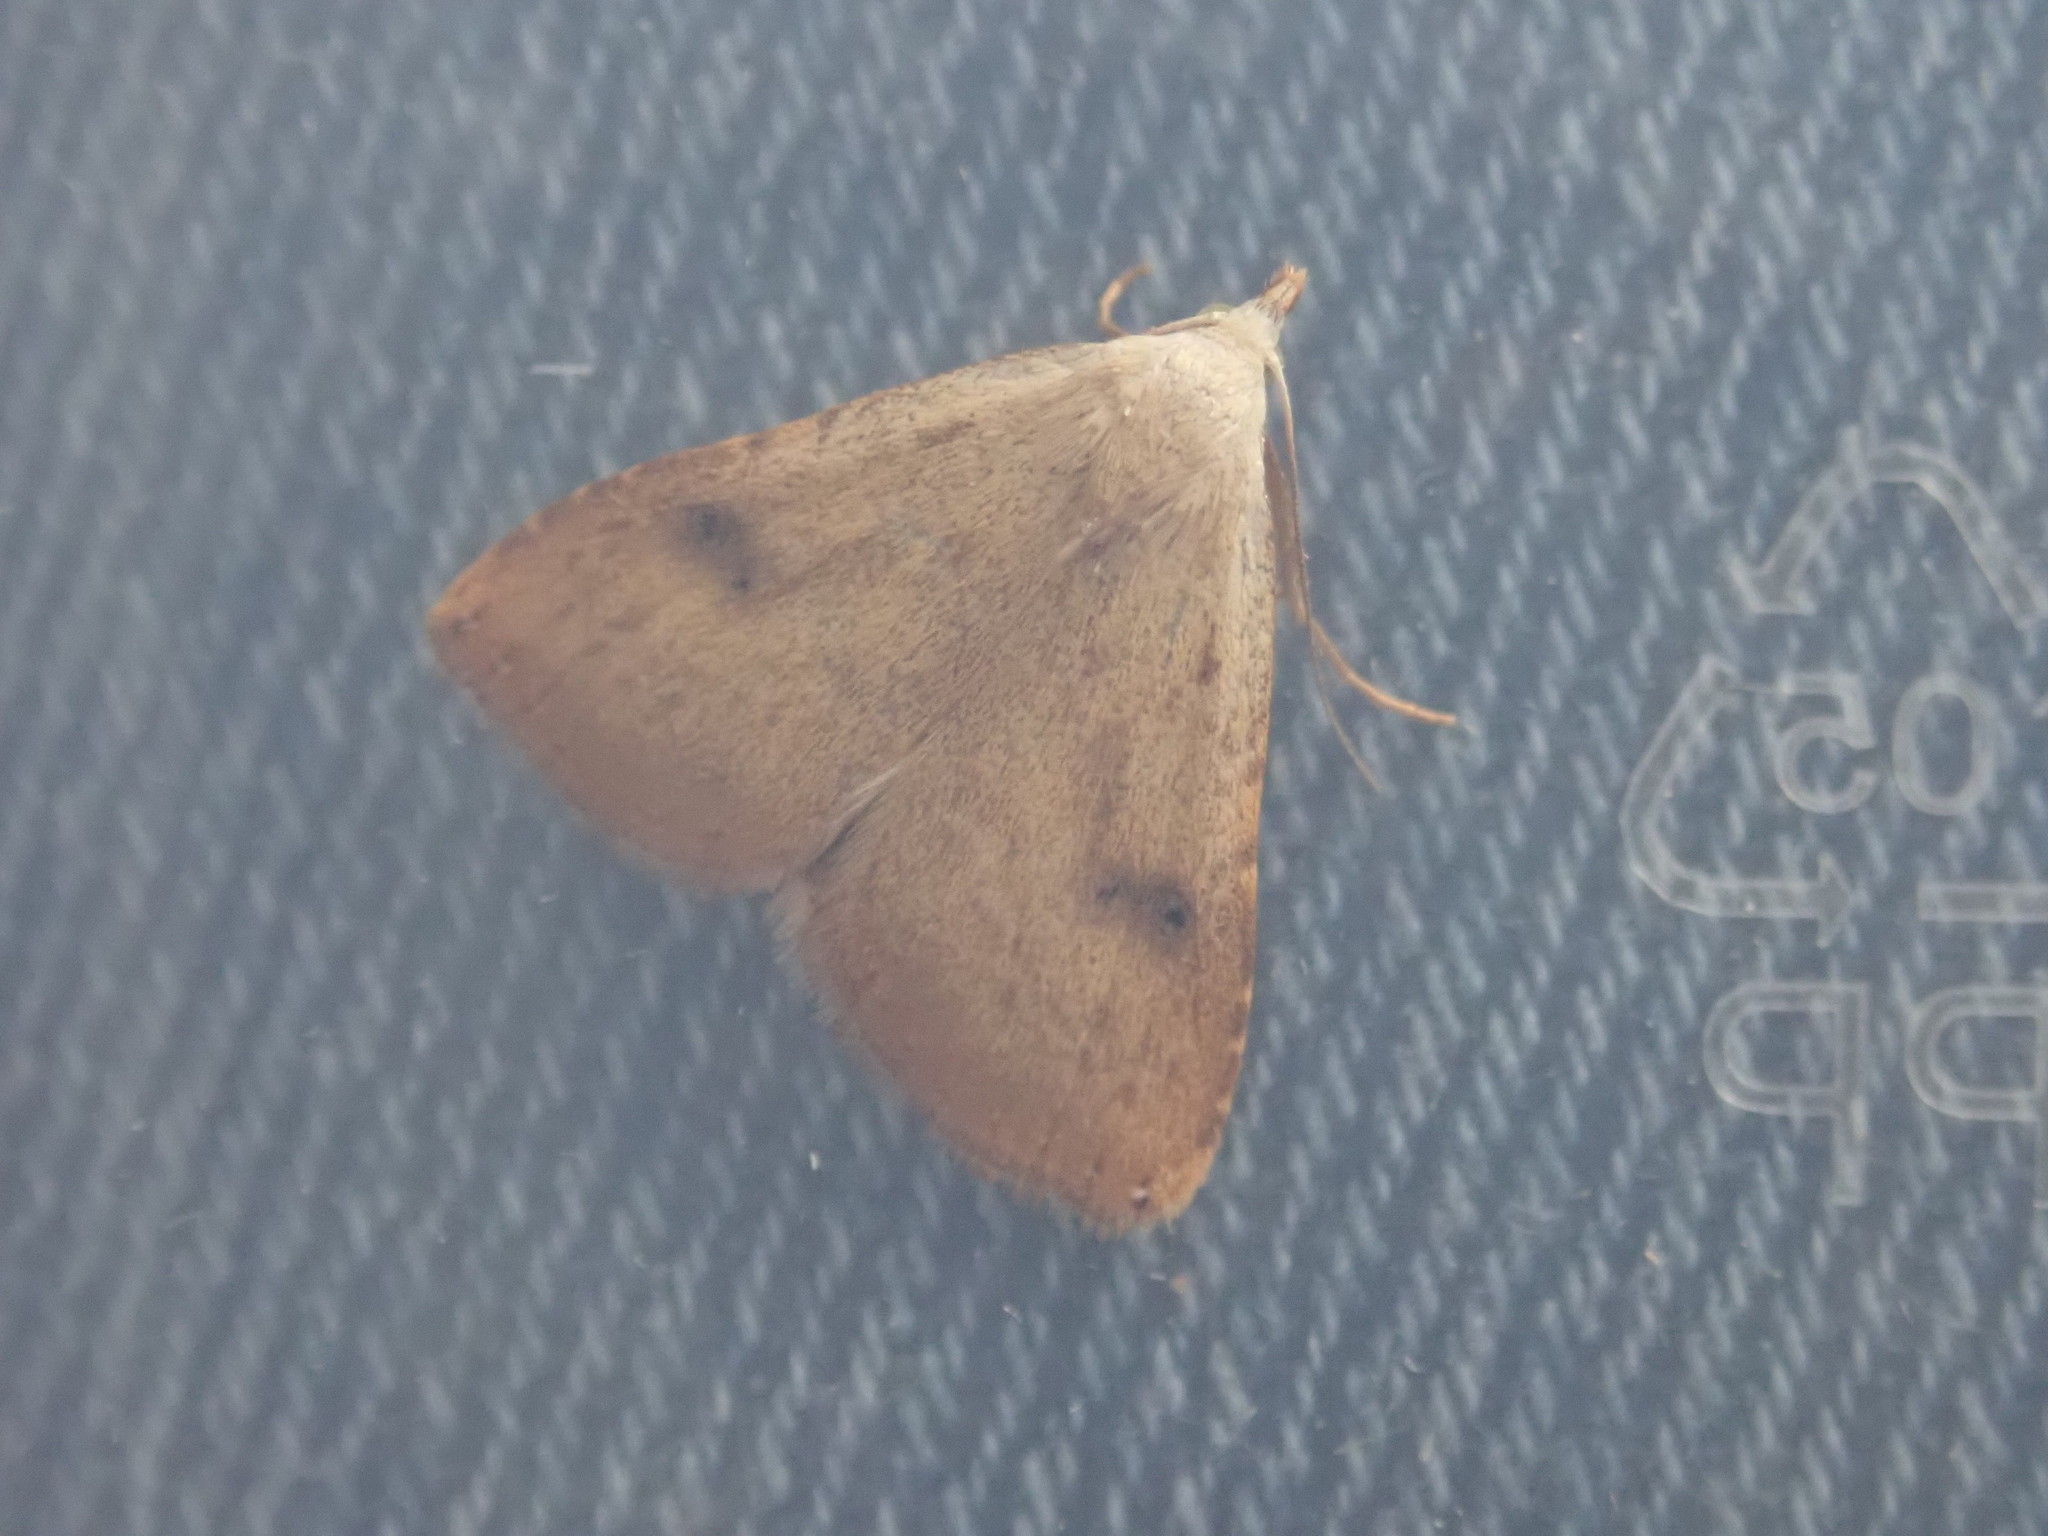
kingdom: Animalia
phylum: Arthropoda
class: Insecta
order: Lepidoptera
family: Erebidae
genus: Rivula
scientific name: Rivula sericealis
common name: Straw dot
